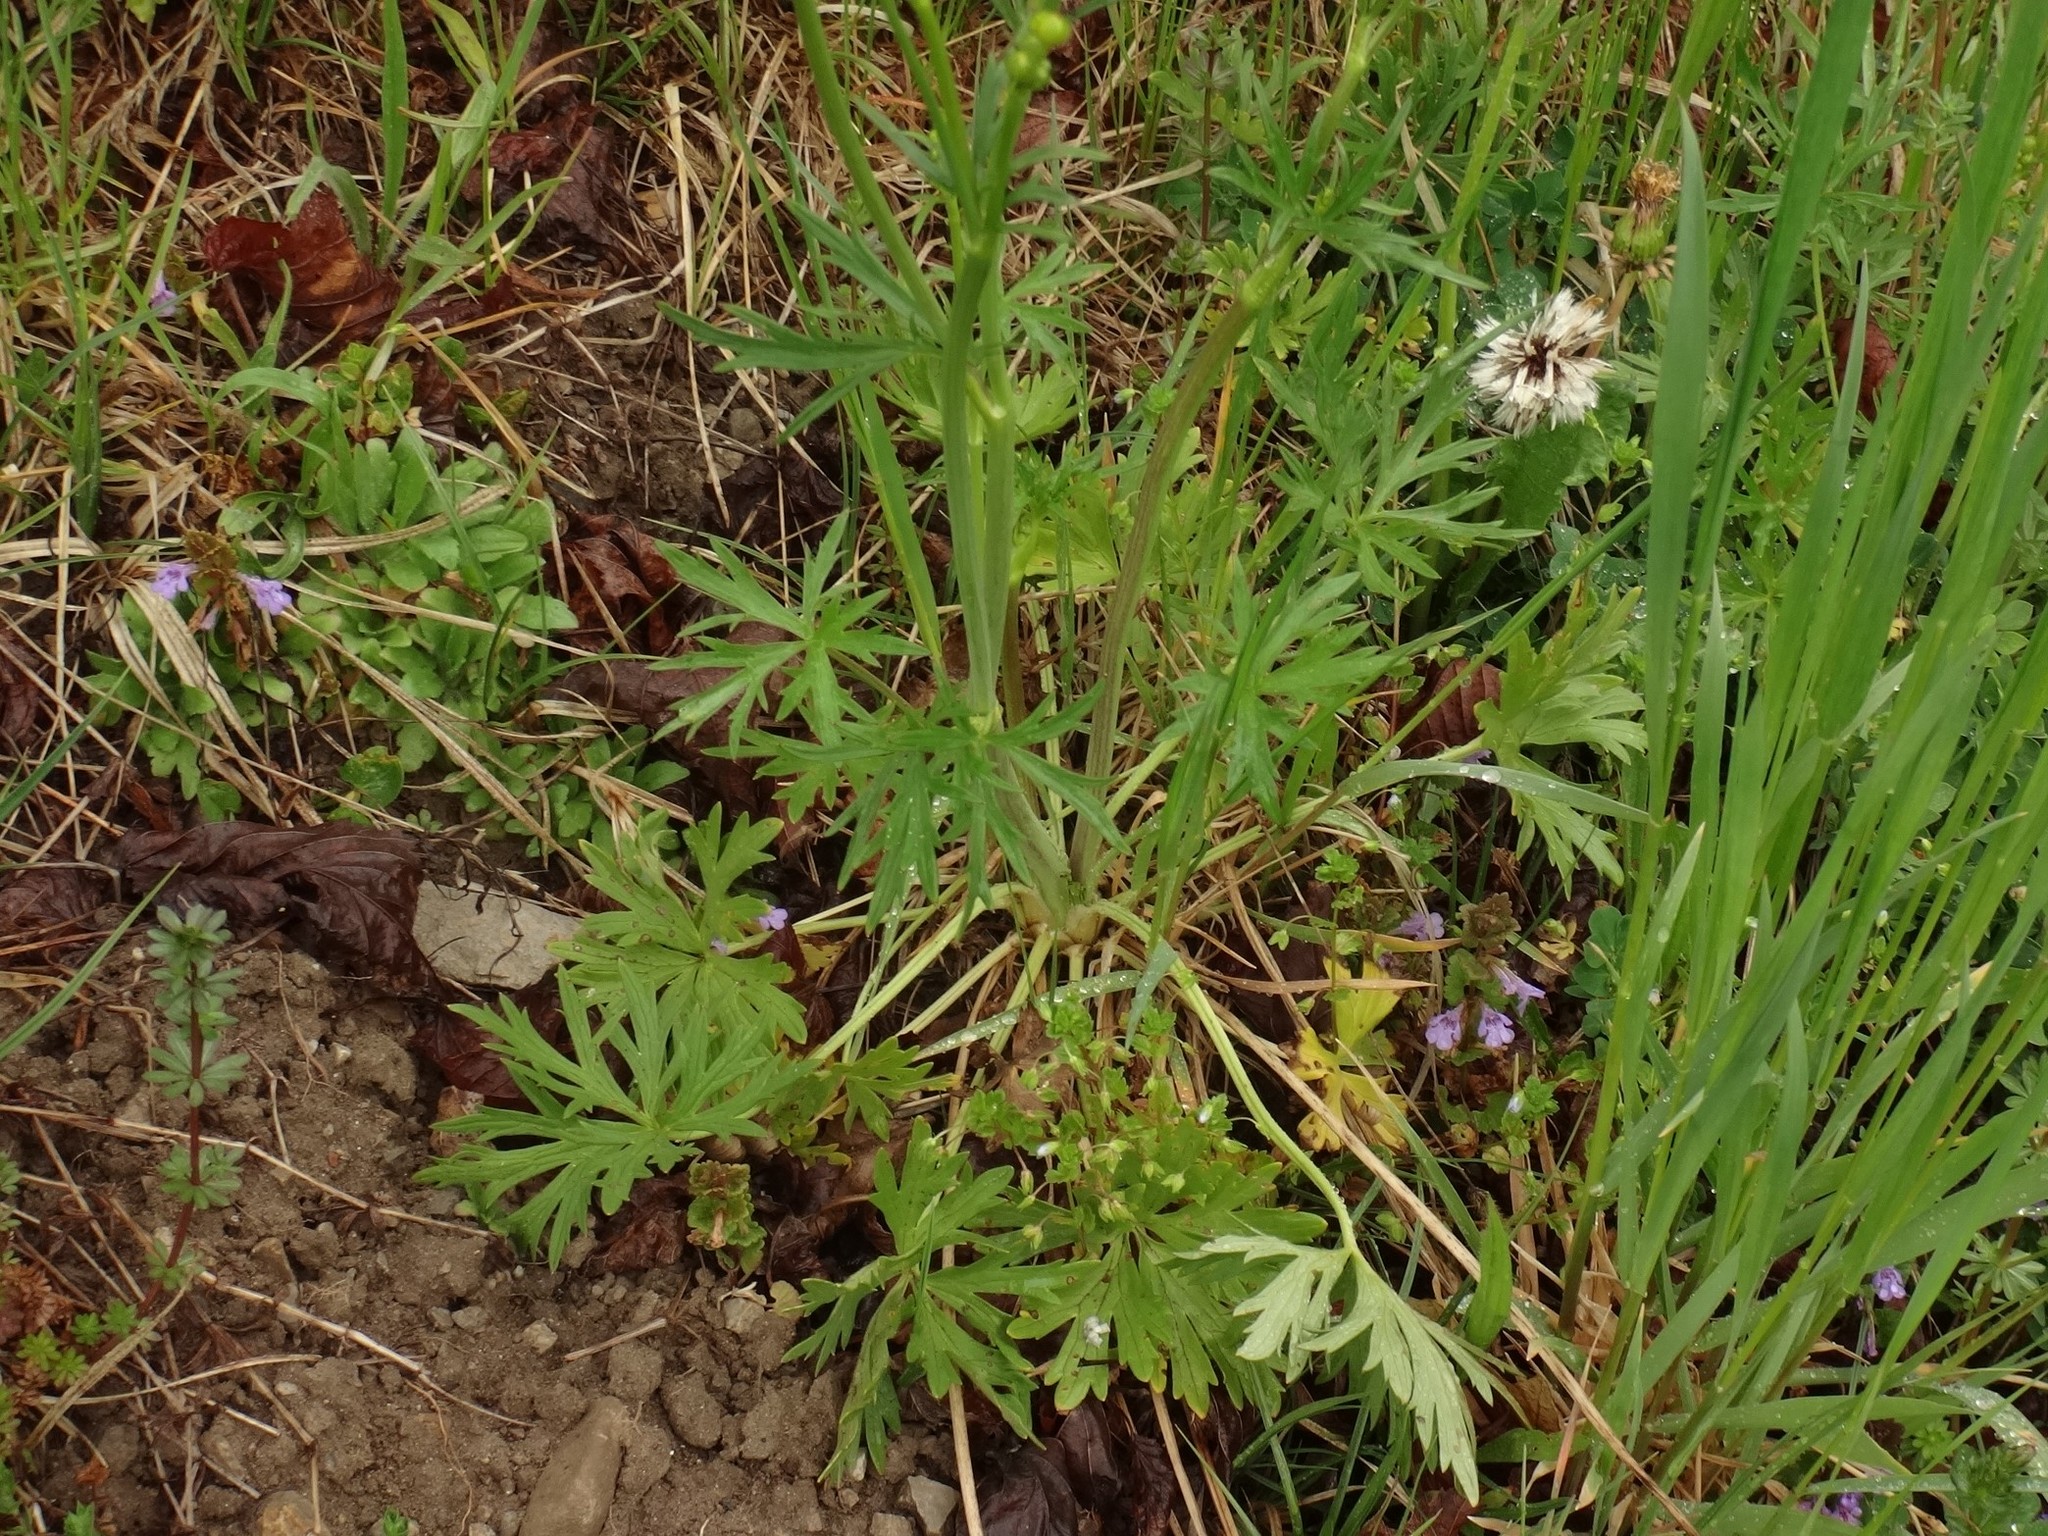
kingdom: Plantae
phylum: Tracheophyta
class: Magnoliopsida
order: Ranunculales
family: Ranunculaceae
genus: Ranunculus
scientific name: Ranunculus acris
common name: Meadow buttercup
